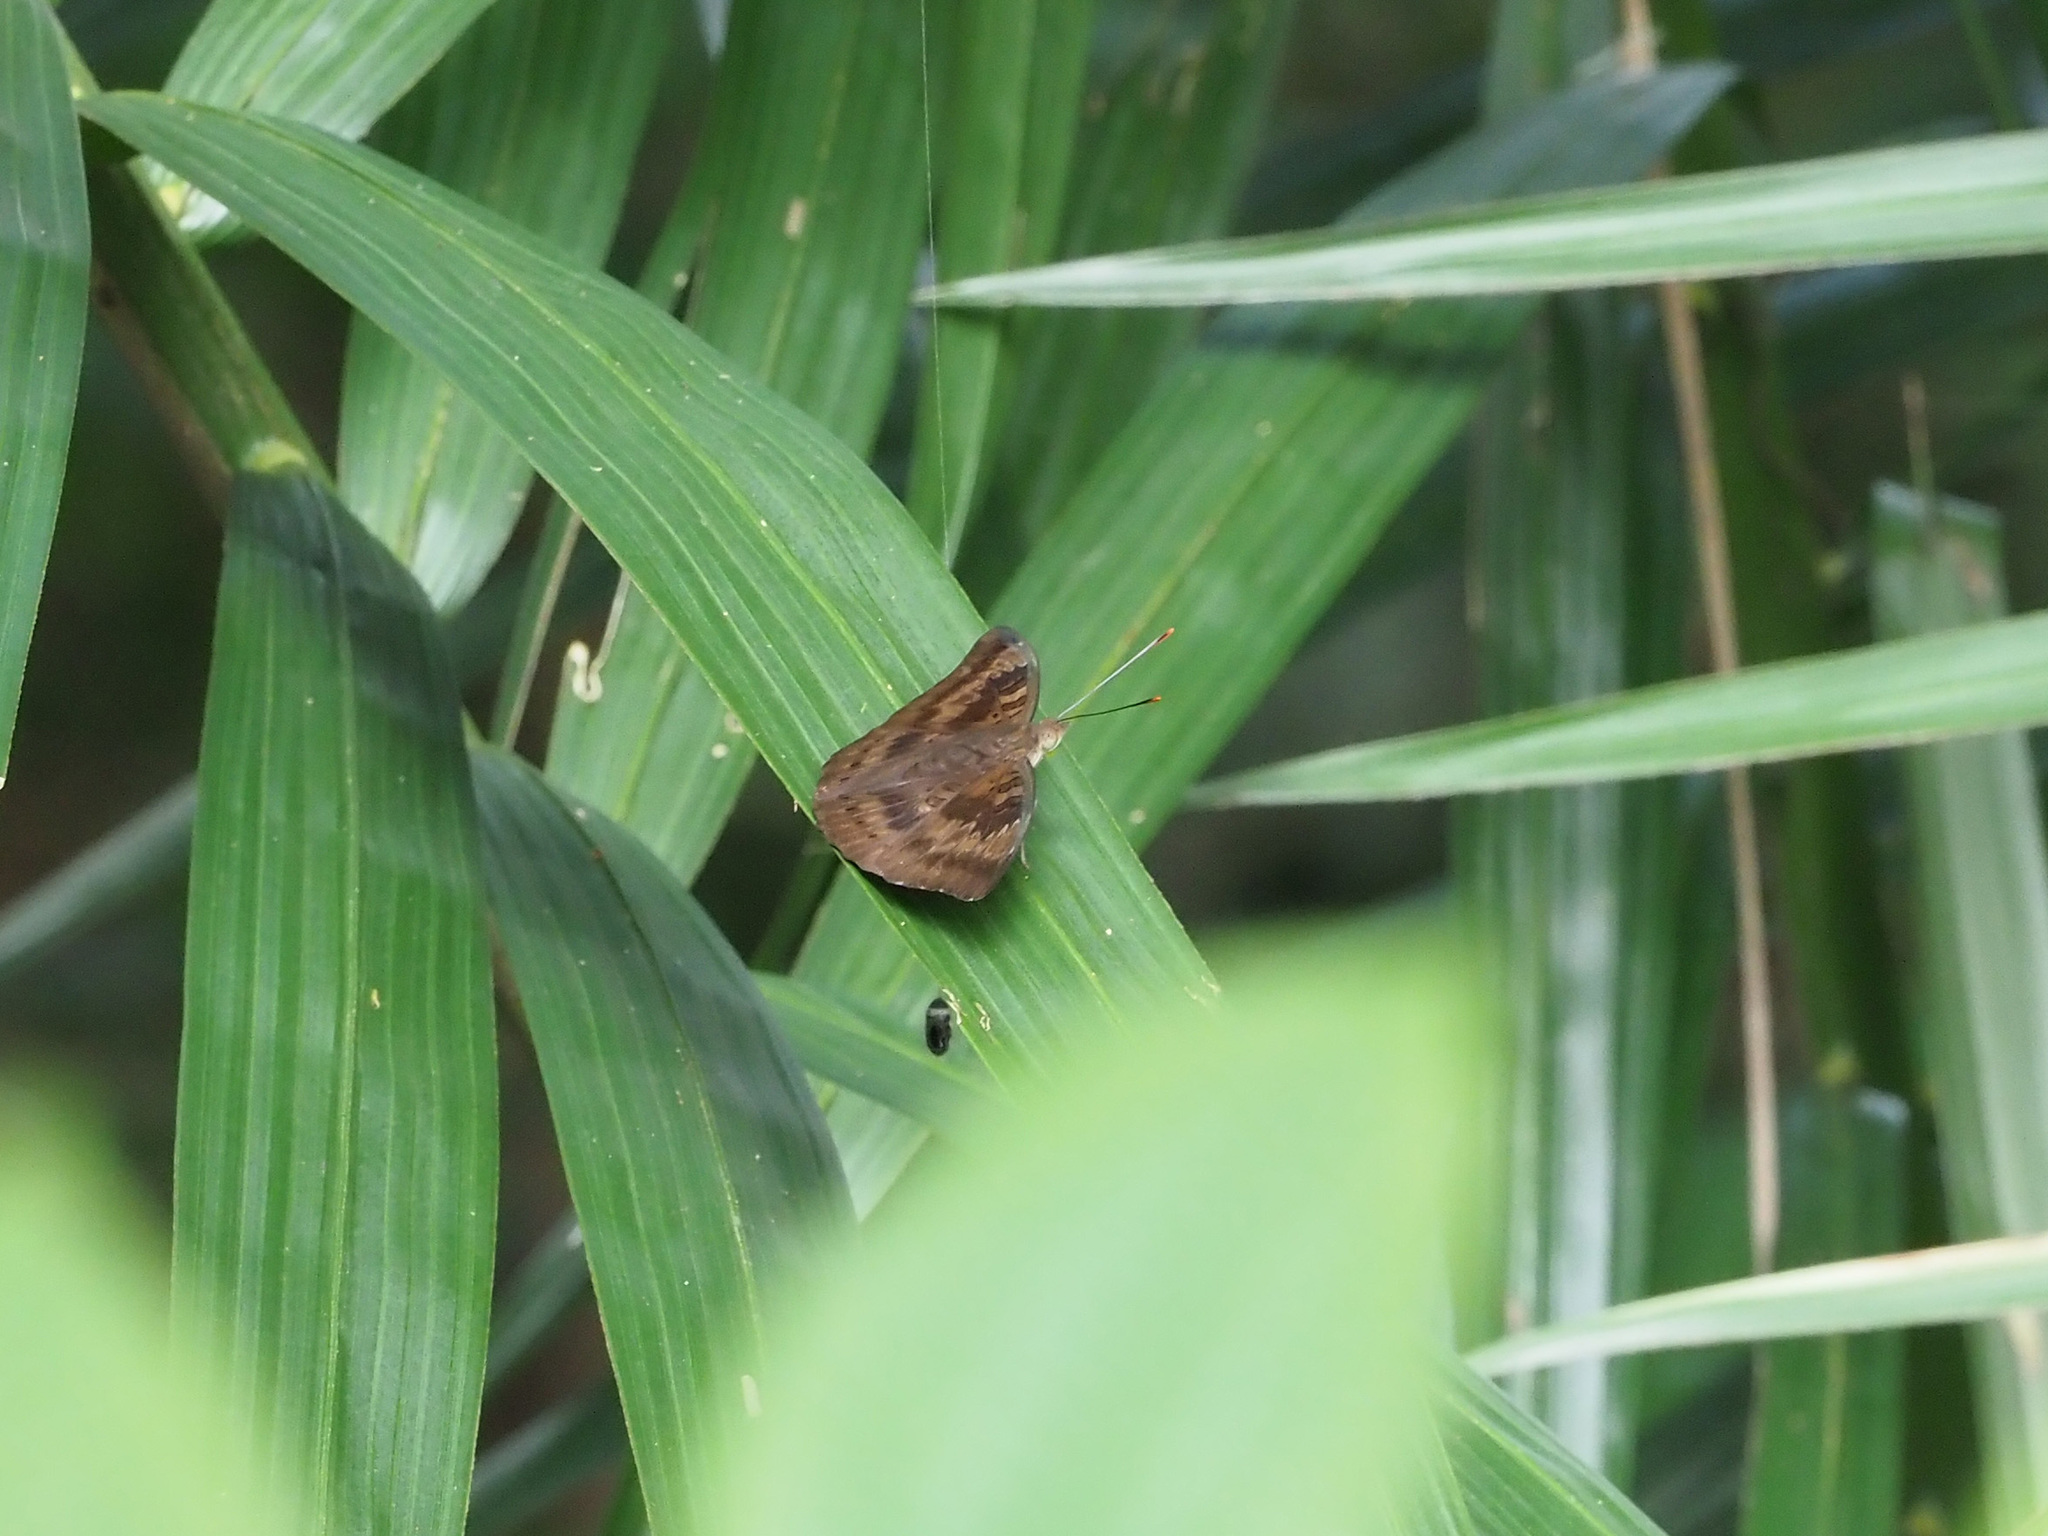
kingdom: Animalia
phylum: Arthropoda
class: Insecta
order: Lepidoptera
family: Nymphalidae
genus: Euthalia
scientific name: Euthalia aconthea
